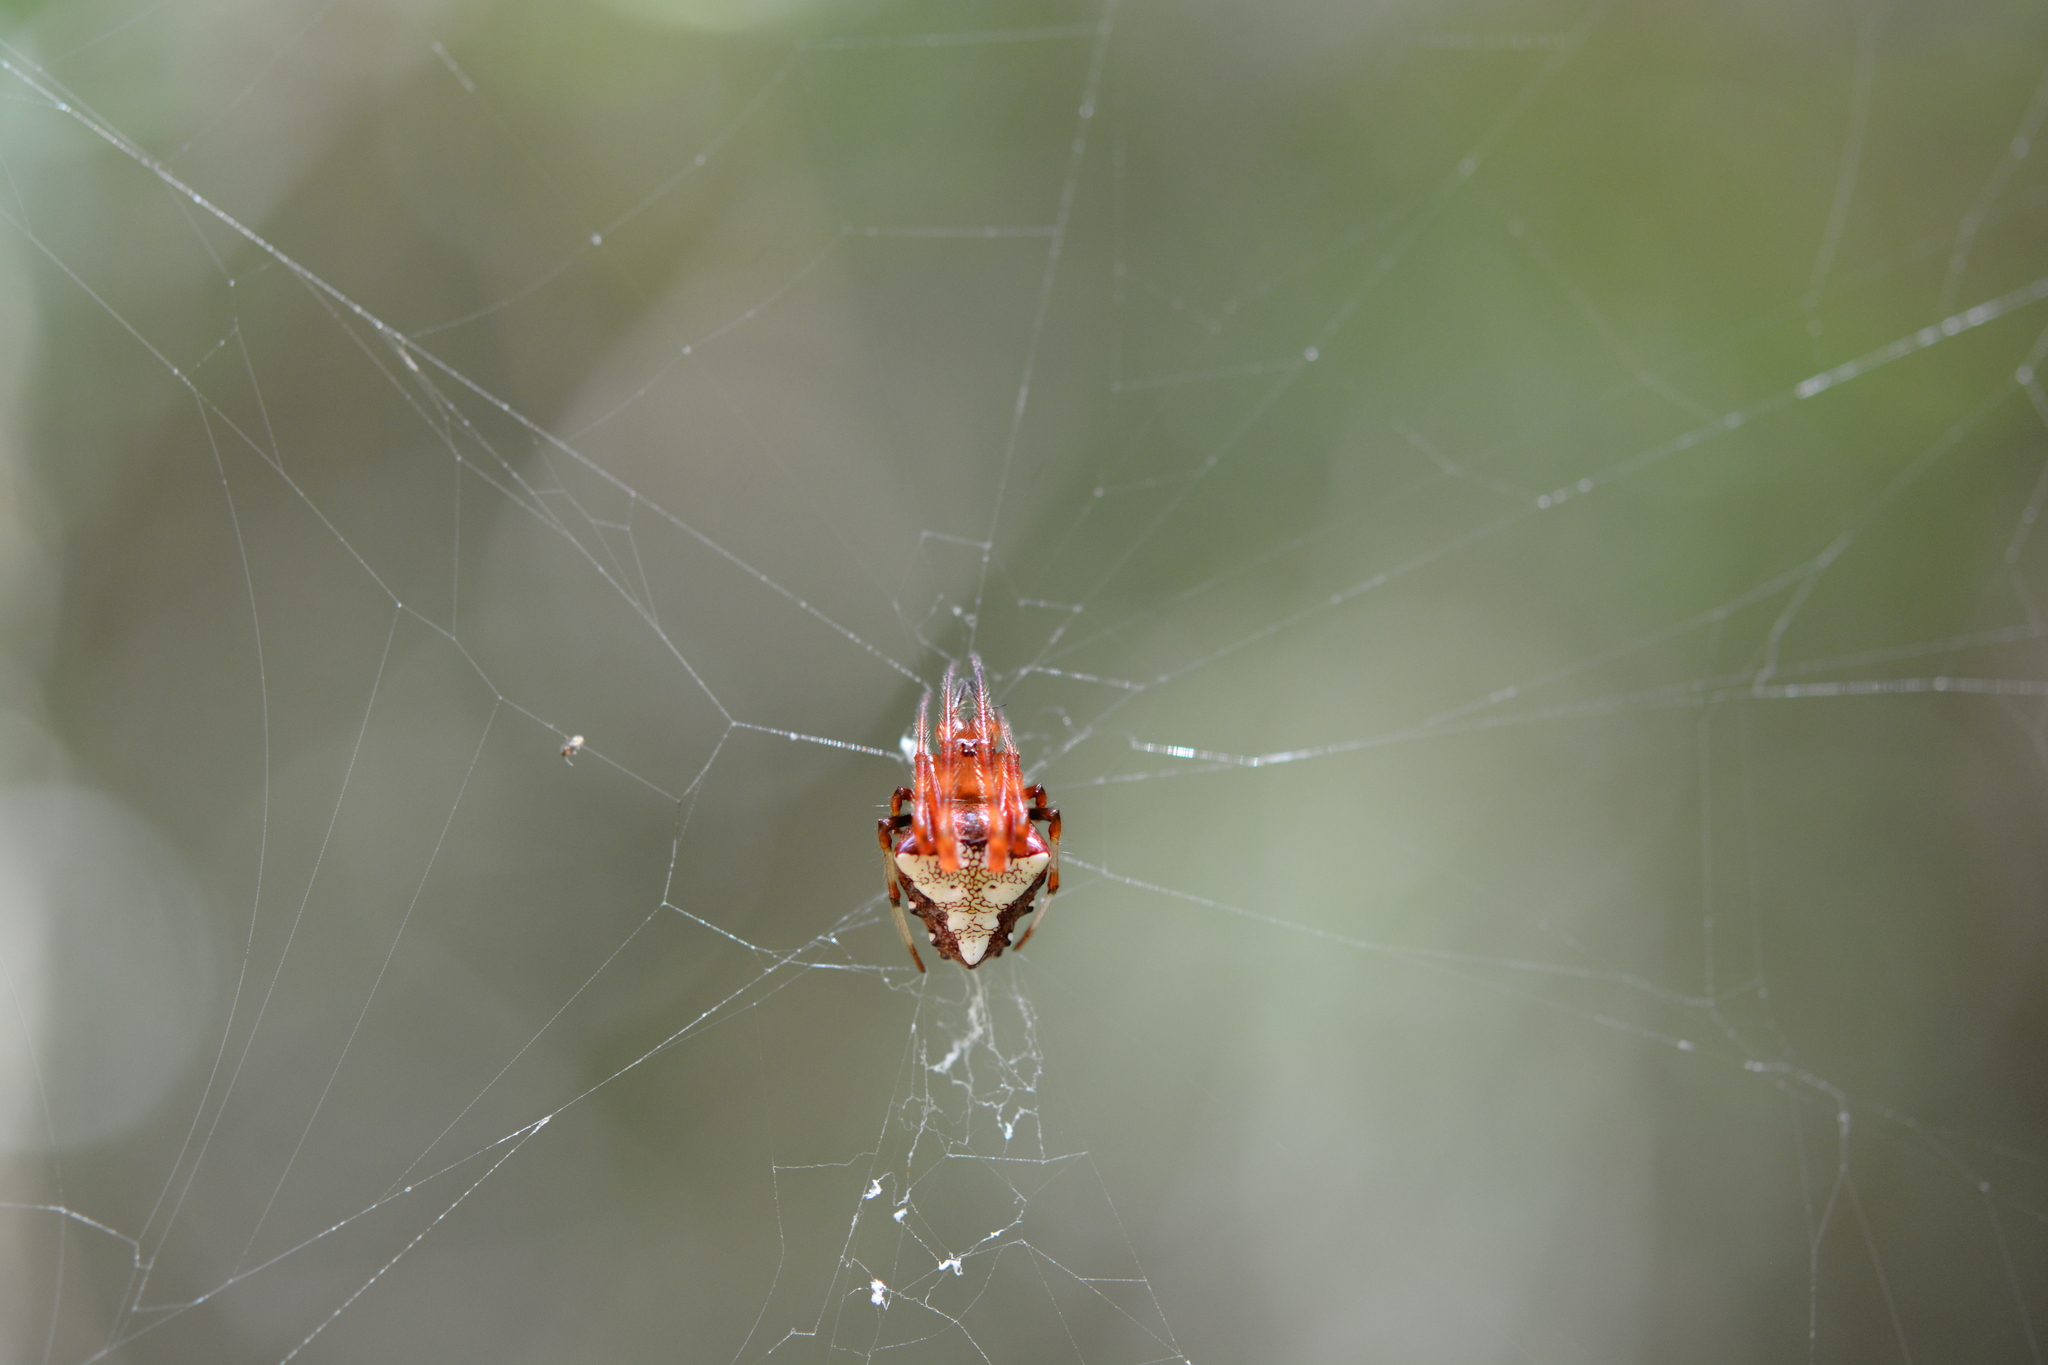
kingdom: Animalia
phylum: Arthropoda
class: Arachnida
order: Araneae
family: Araneidae
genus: Verrucosa
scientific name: Verrucosa arenata
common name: Orb weavers
